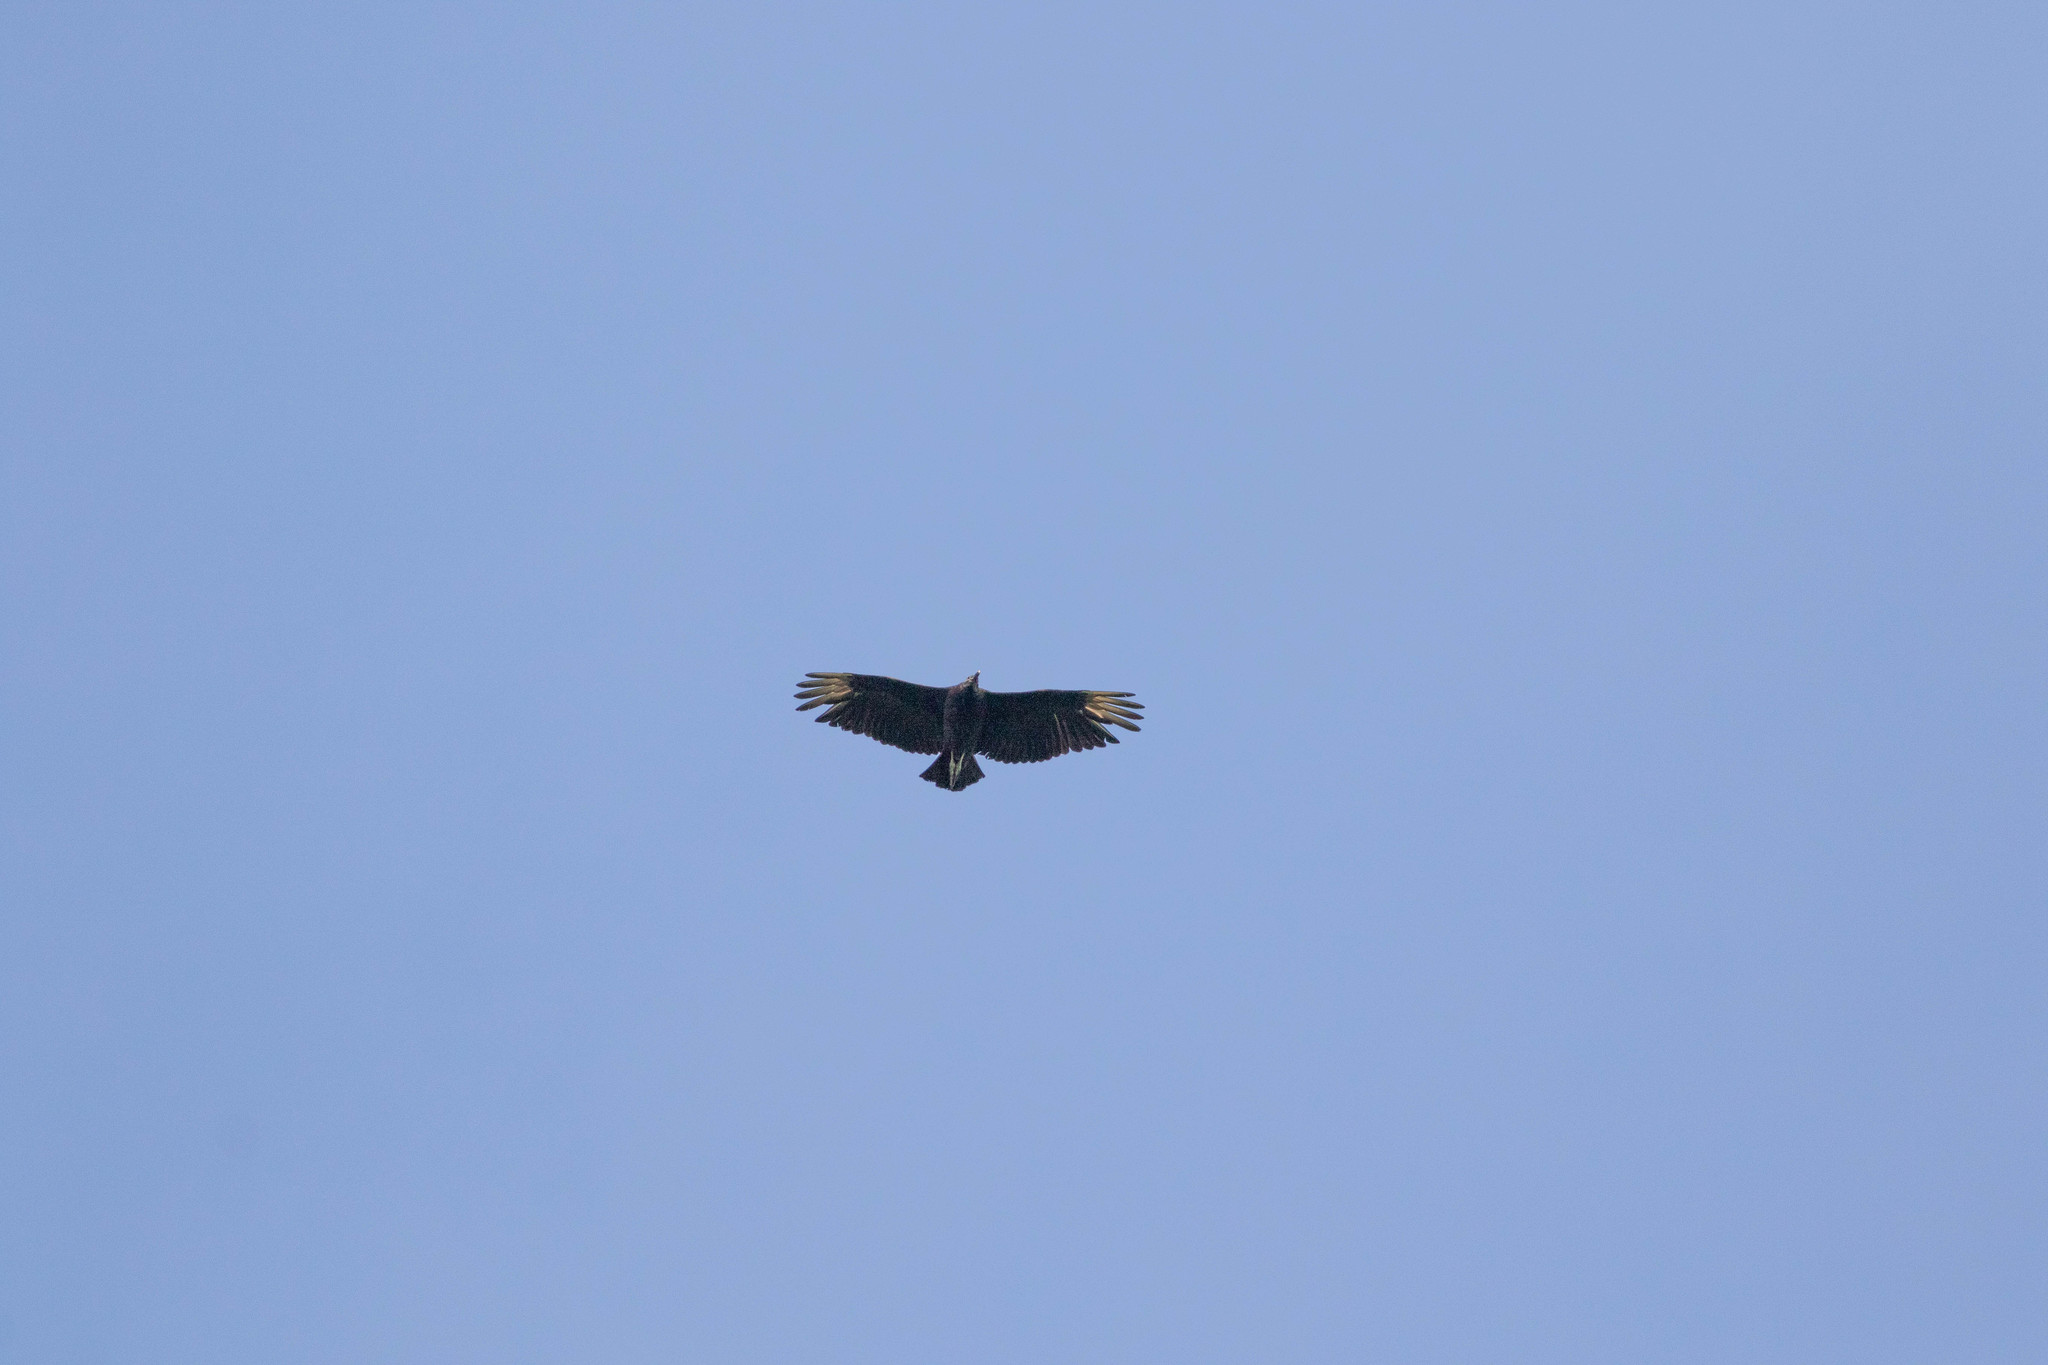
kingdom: Animalia
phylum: Chordata
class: Aves
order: Accipitriformes
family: Cathartidae
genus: Coragyps
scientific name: Coragyps atratus
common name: Black vulture
